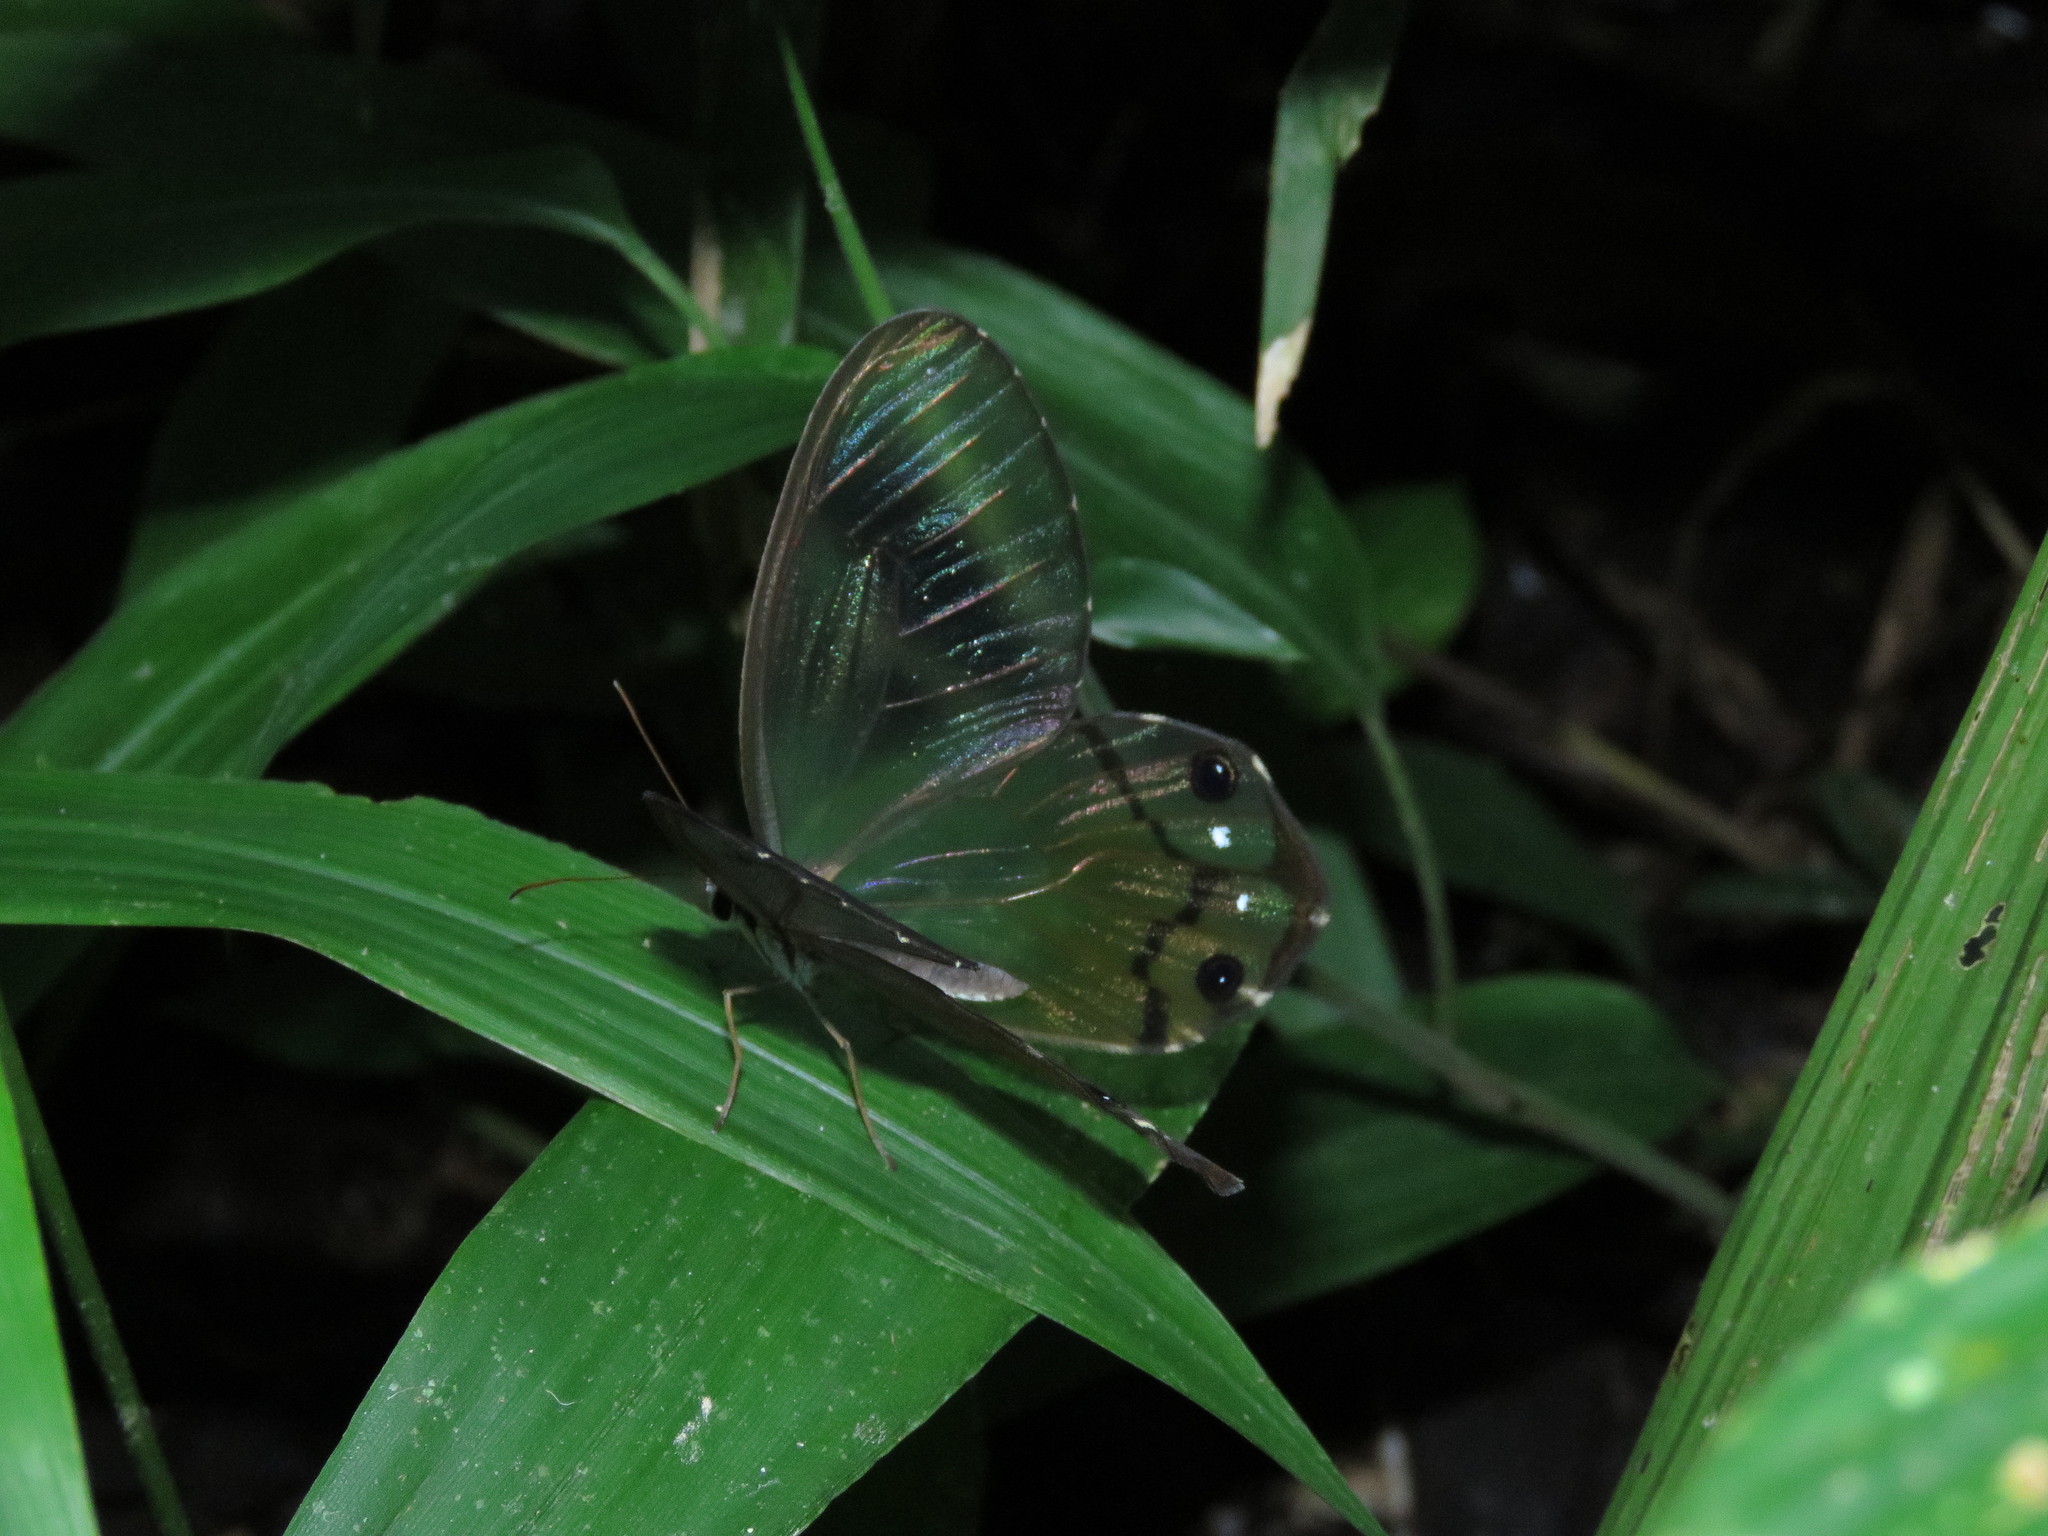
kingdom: Animalia
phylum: Arthropoda
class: Insecta
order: Lepidoptera
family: Nymphalidae
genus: Haetera
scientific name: Haetera piera
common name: Amber phantom
